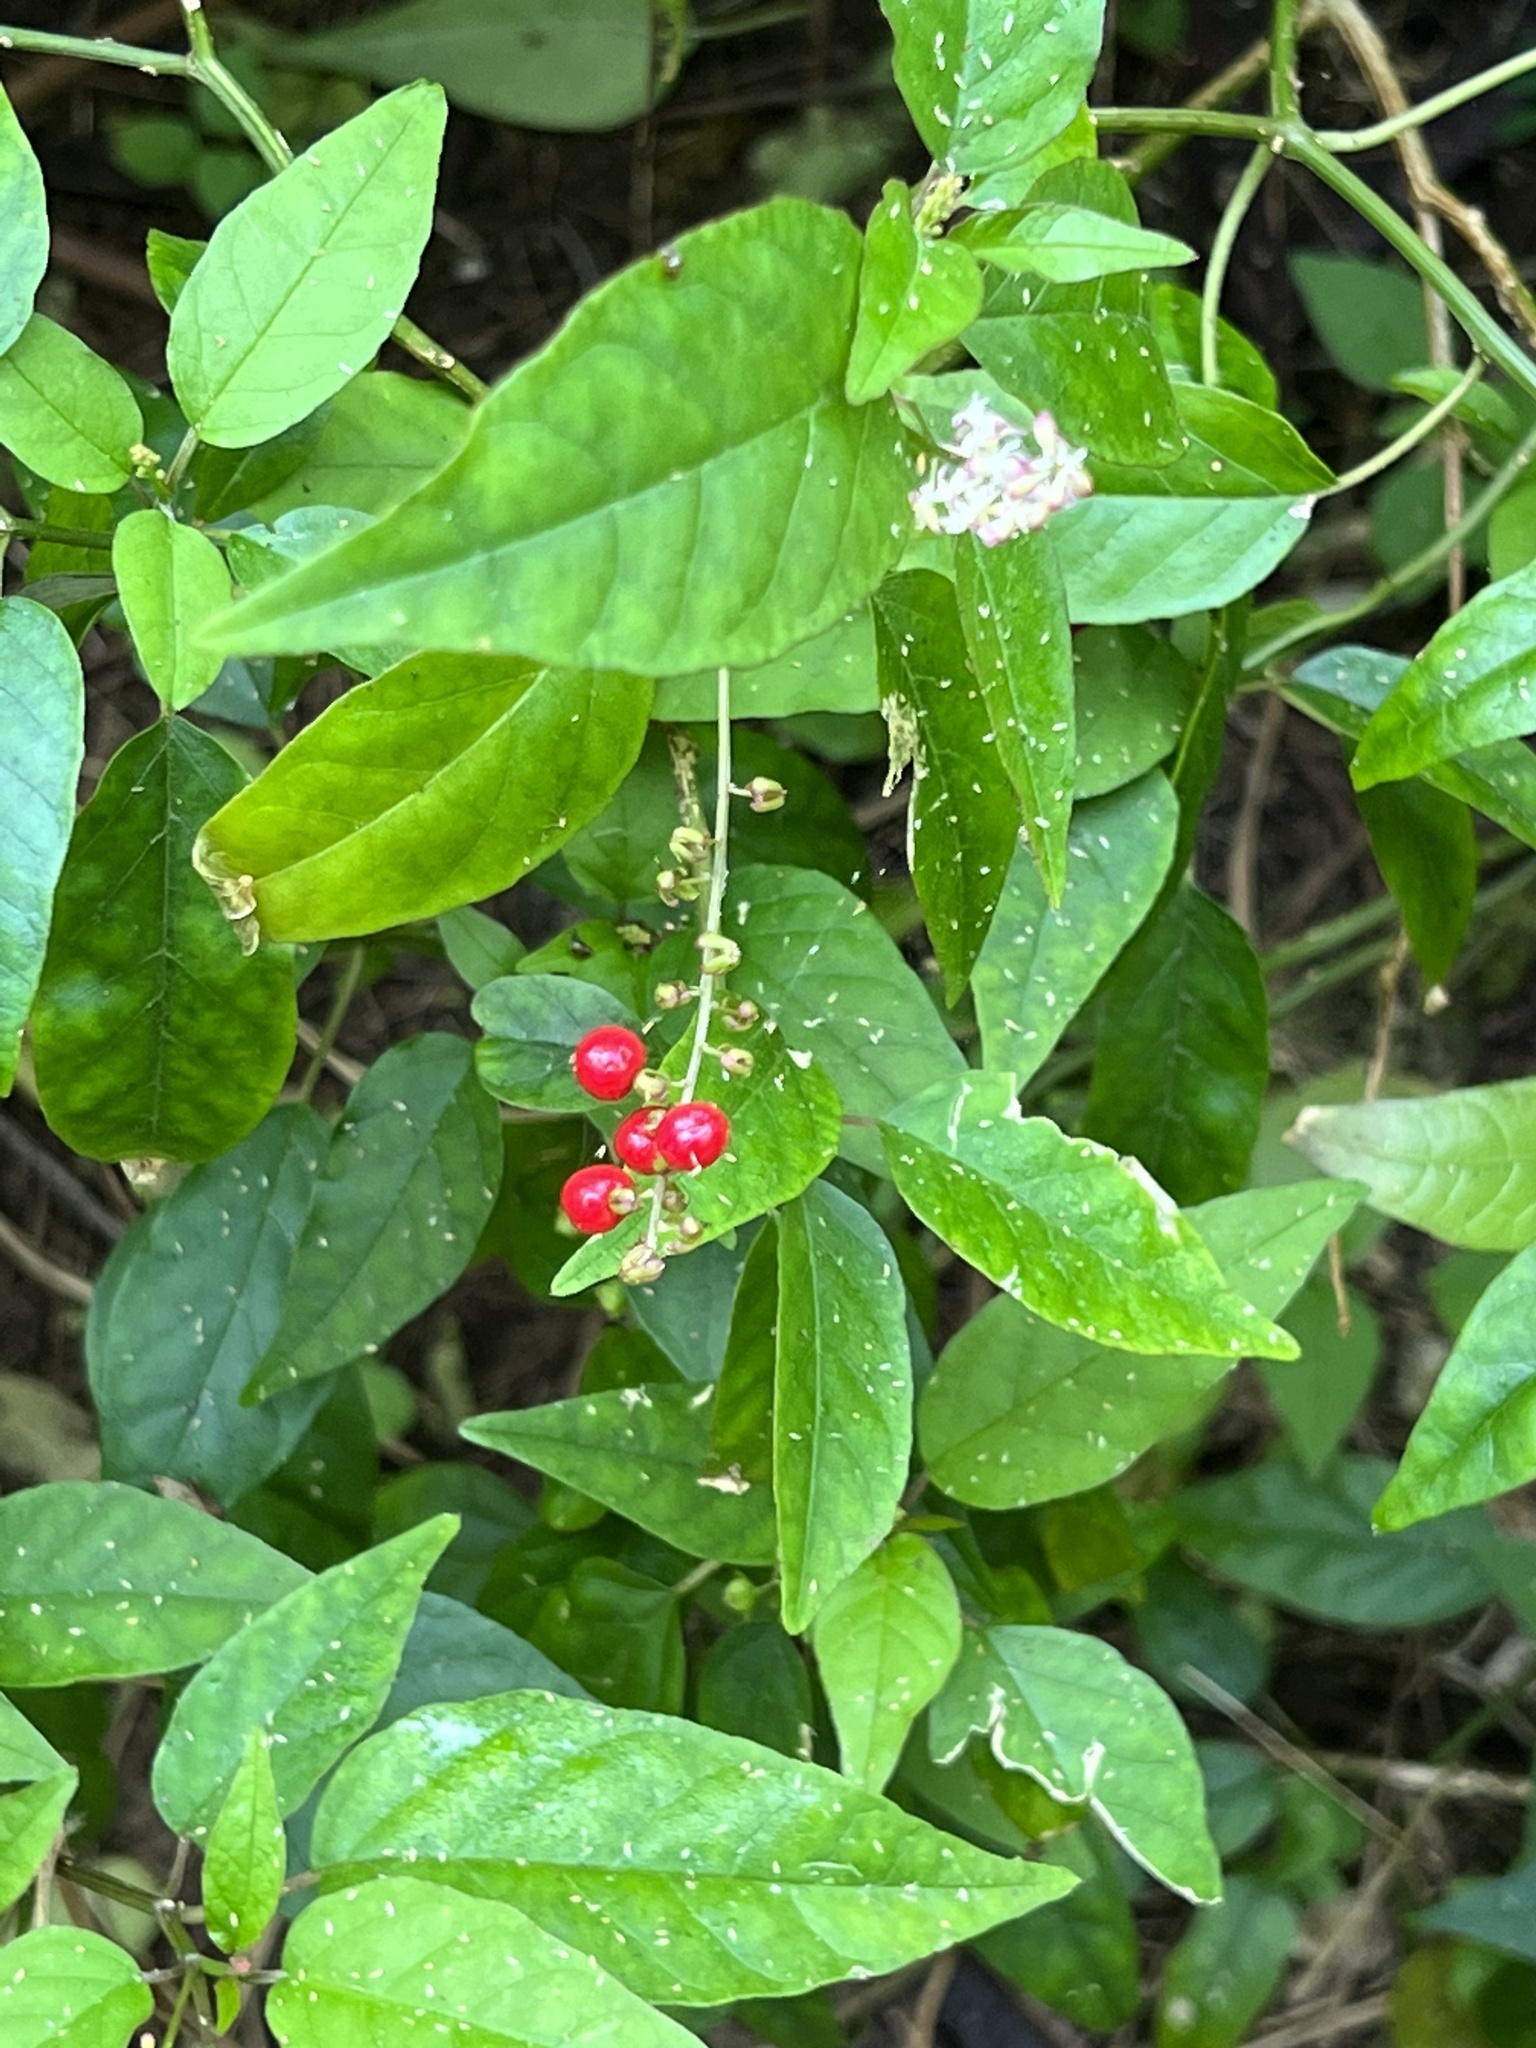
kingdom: Plantae
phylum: Tracheophyta
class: Magnoliopsida
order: Caryophyllales
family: Phytolaccaceae
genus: Rivina
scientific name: Rivina humilis
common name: Rougeplant
